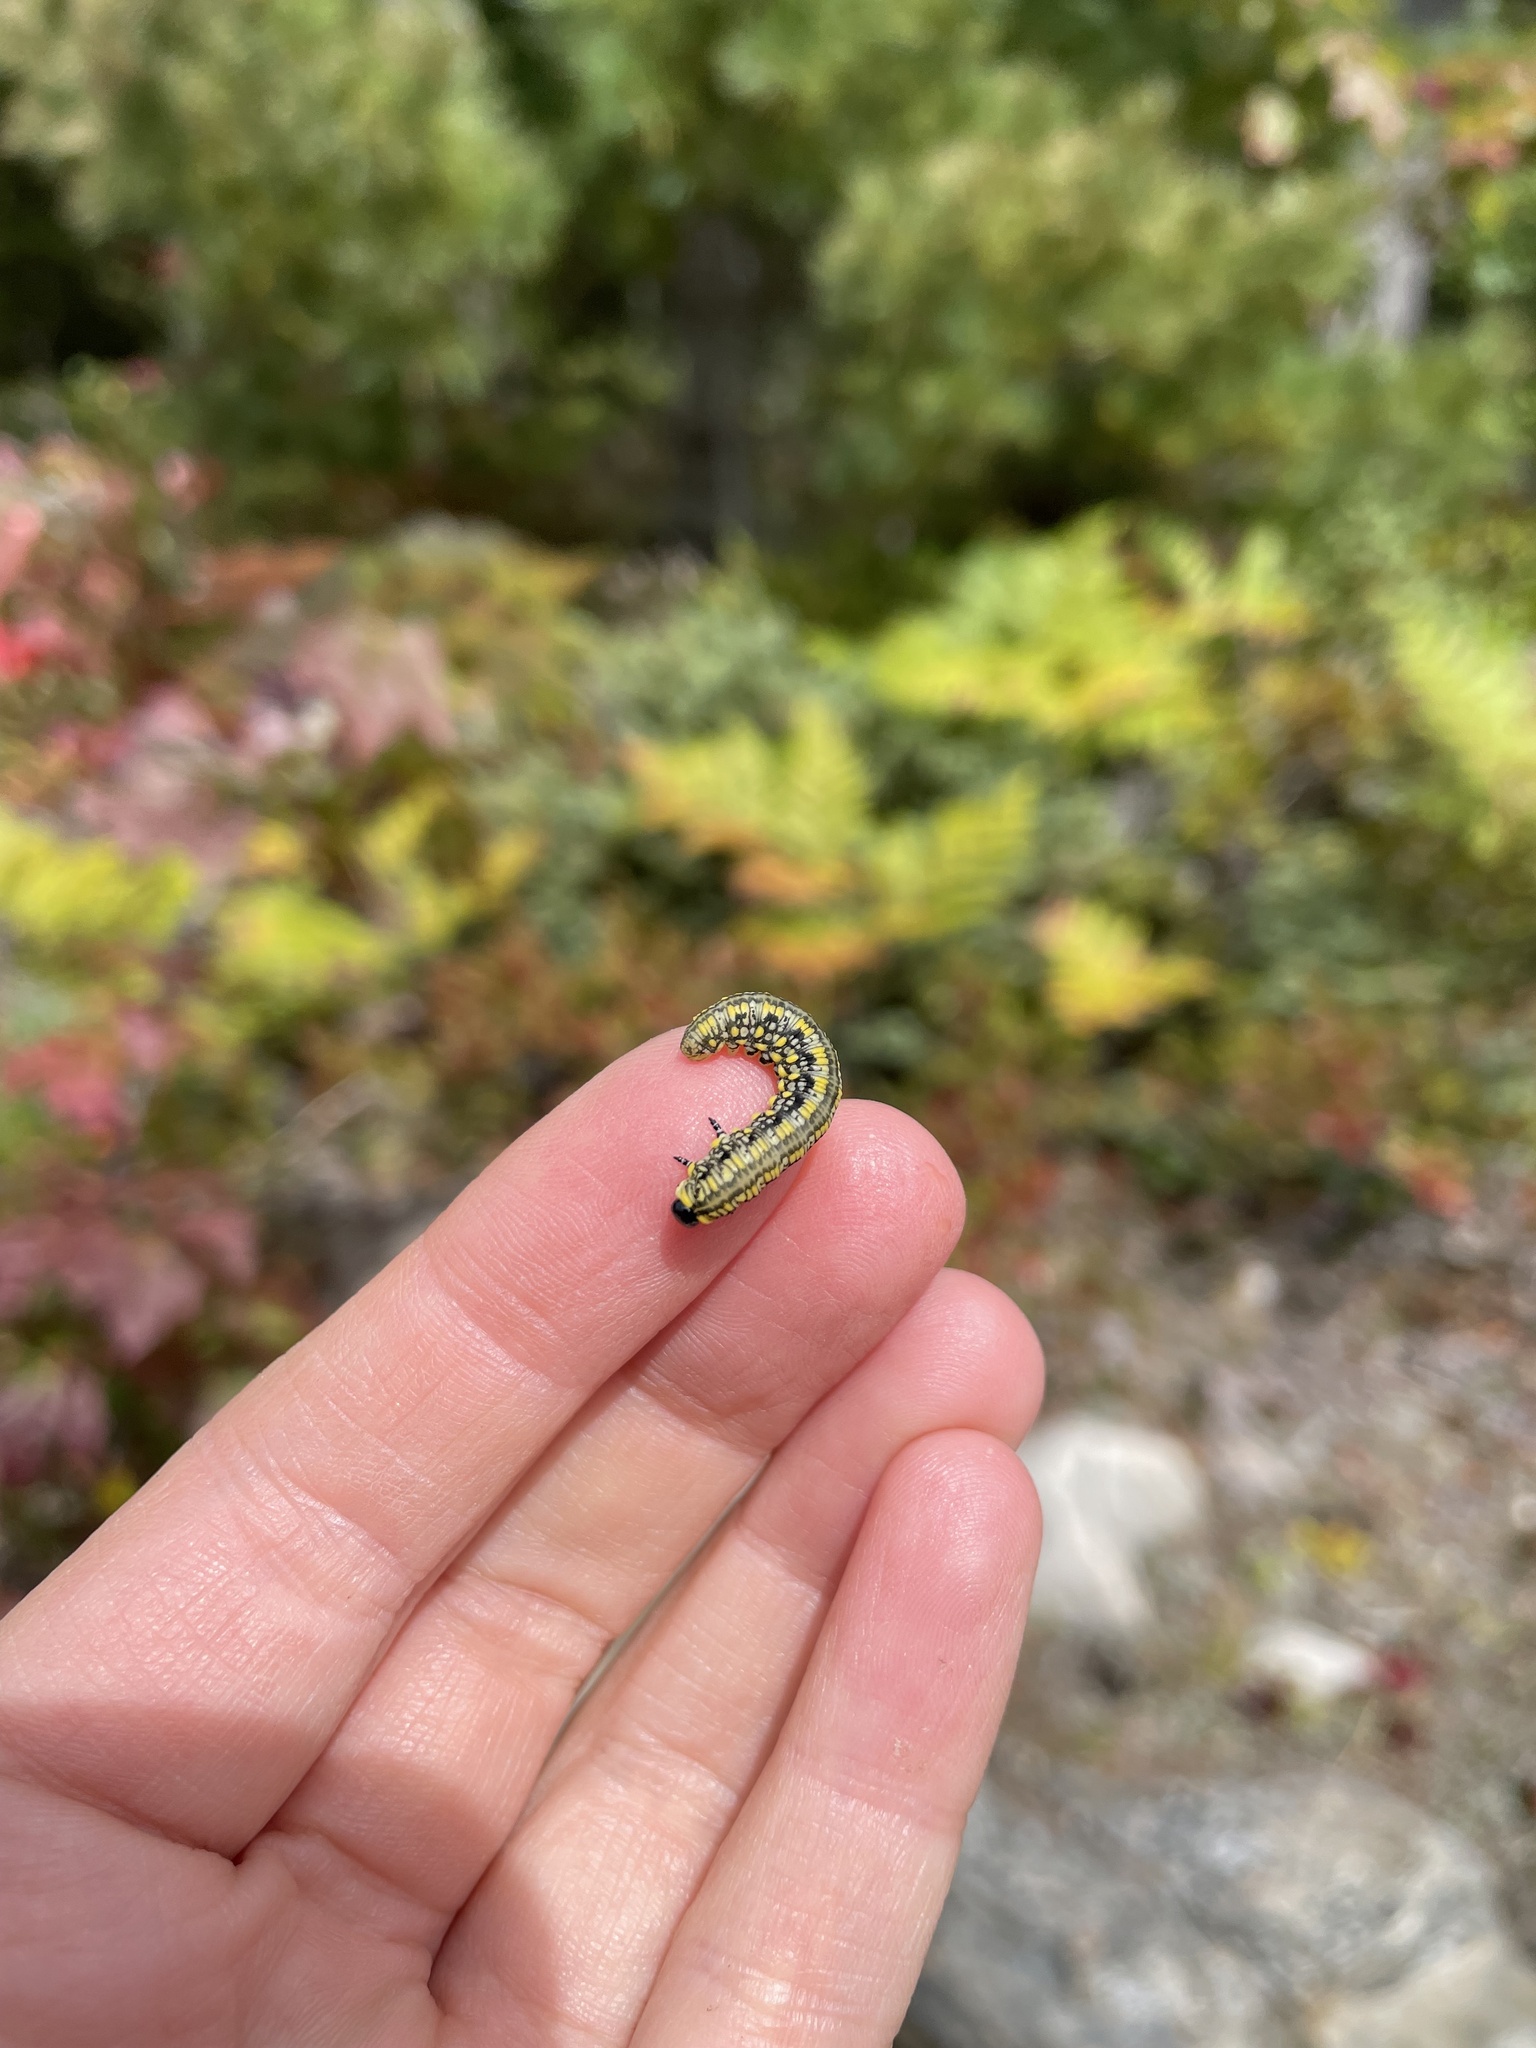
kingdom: Animalia
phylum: Arthropoda
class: Insecta
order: Hymenoptera
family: Diprionidae
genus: Diprion
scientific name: Diprion similis
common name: Pine sawfly
